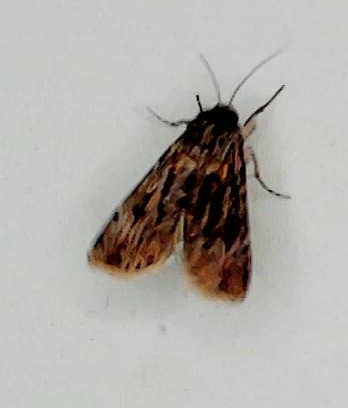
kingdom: Animalia
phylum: Arthropoda
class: Insecta
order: Lepidoptera
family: Noctuidae
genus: Agrotis
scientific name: Agrotis munda
